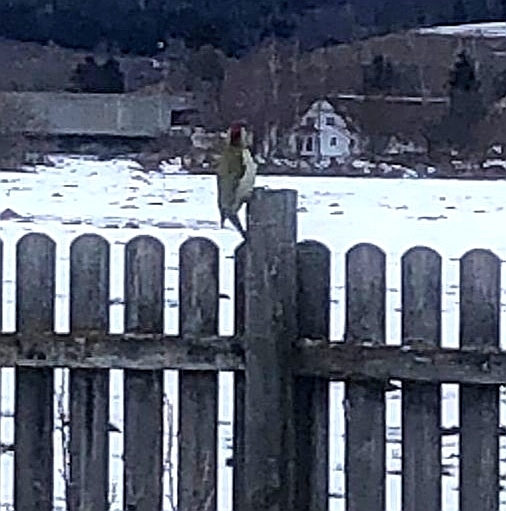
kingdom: Animalia
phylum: Chordata
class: Aves
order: Piciformes
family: Picidae
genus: Picus
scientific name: Picus viridis
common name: European green woodpecker
